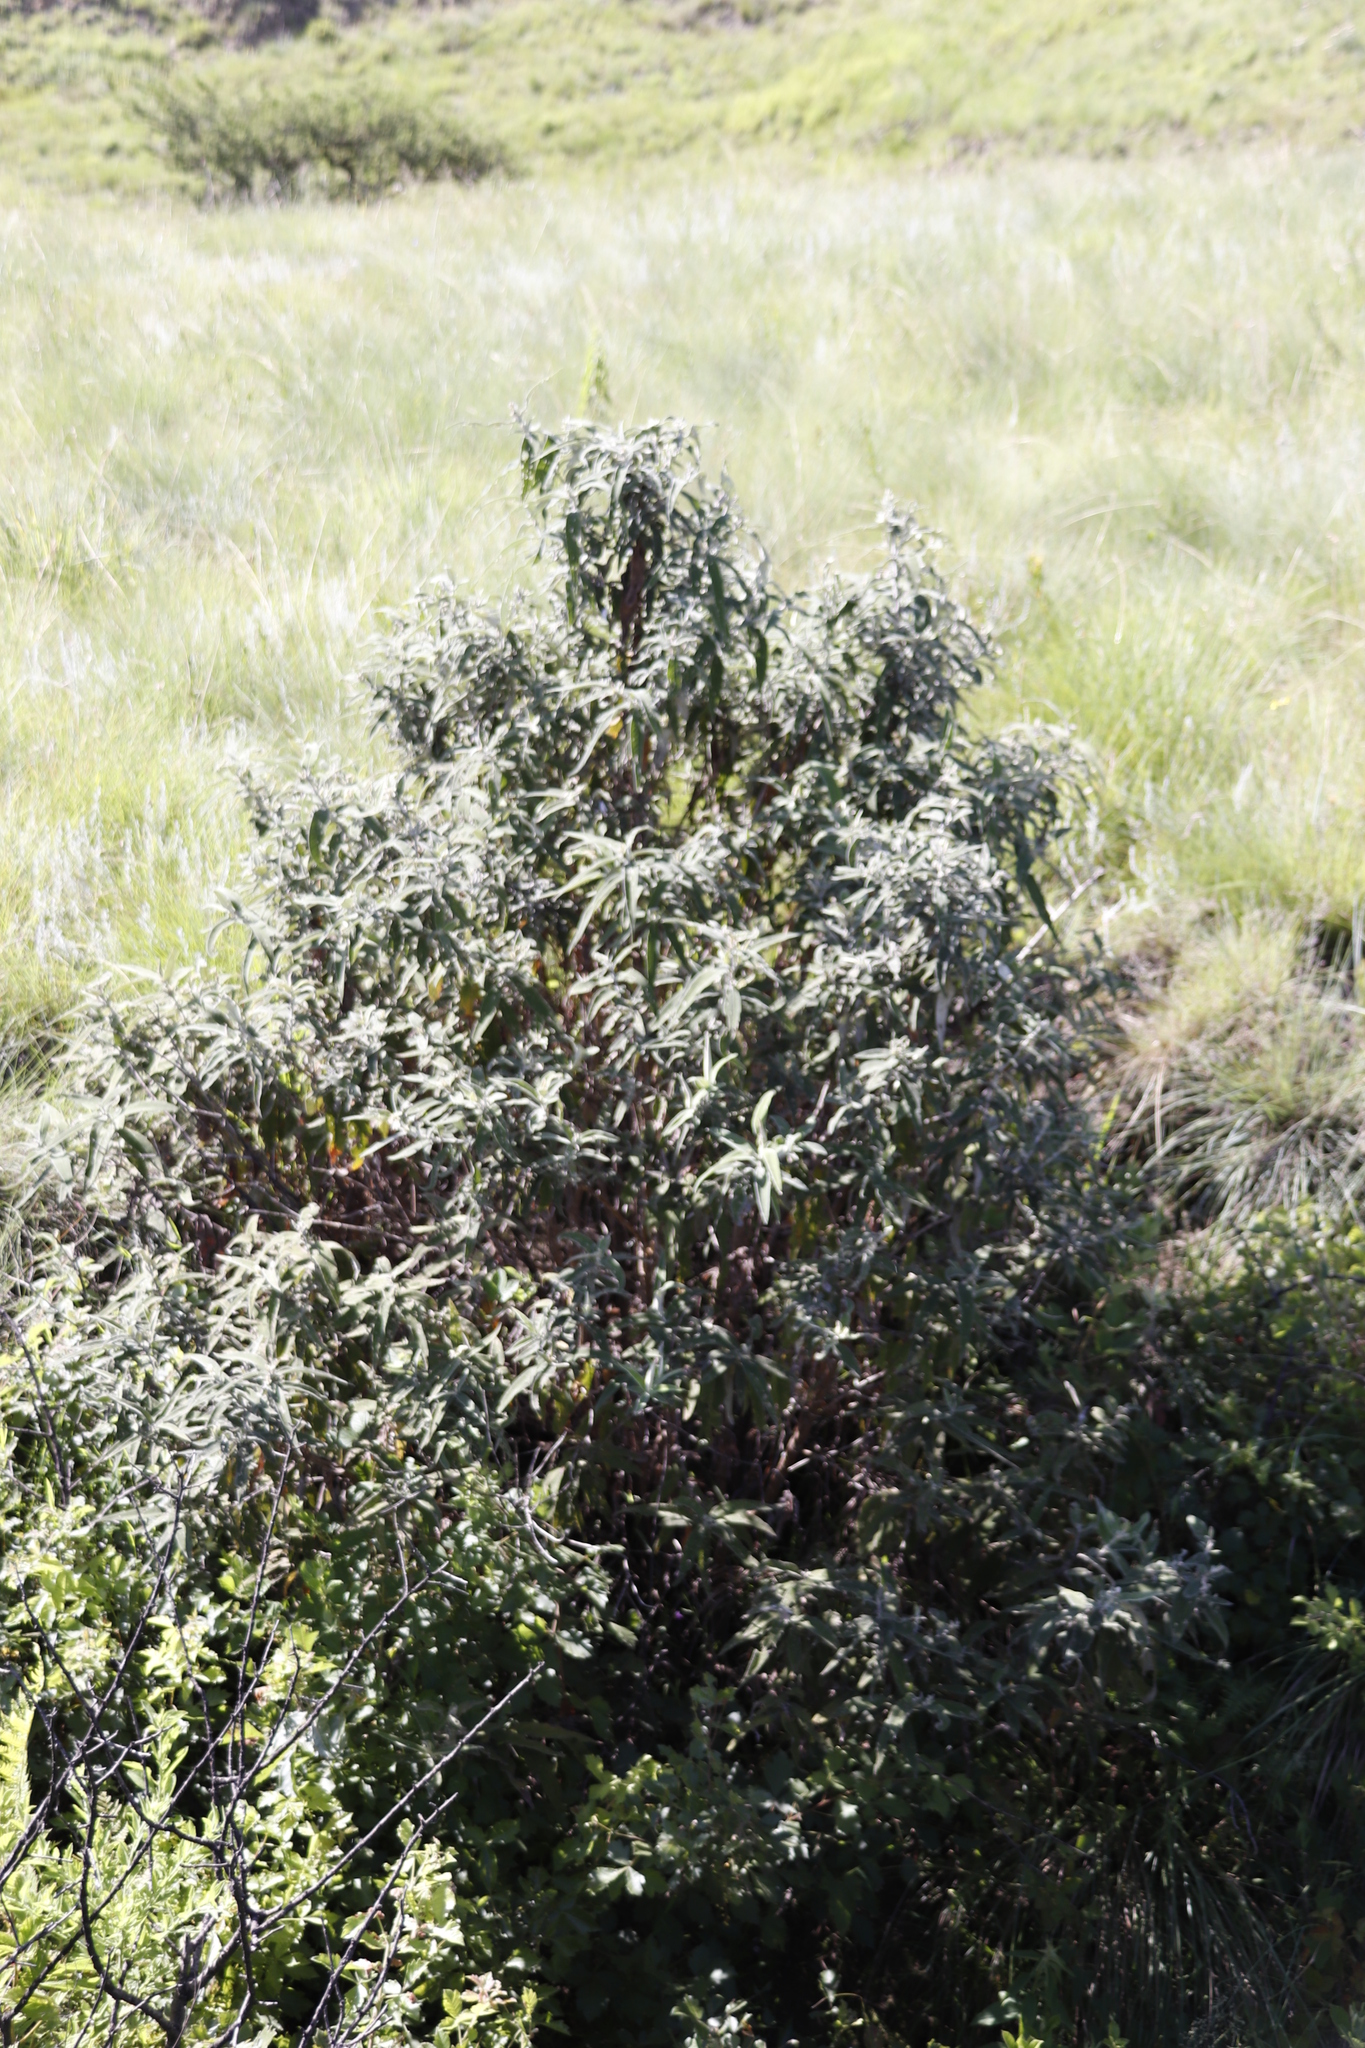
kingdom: Plantae
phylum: Tracheophyta
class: Magnoliopsida
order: Lamiales
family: Scrophulariaceae
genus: Buddleja
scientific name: Buddleja salviifolia
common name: Sagewood
